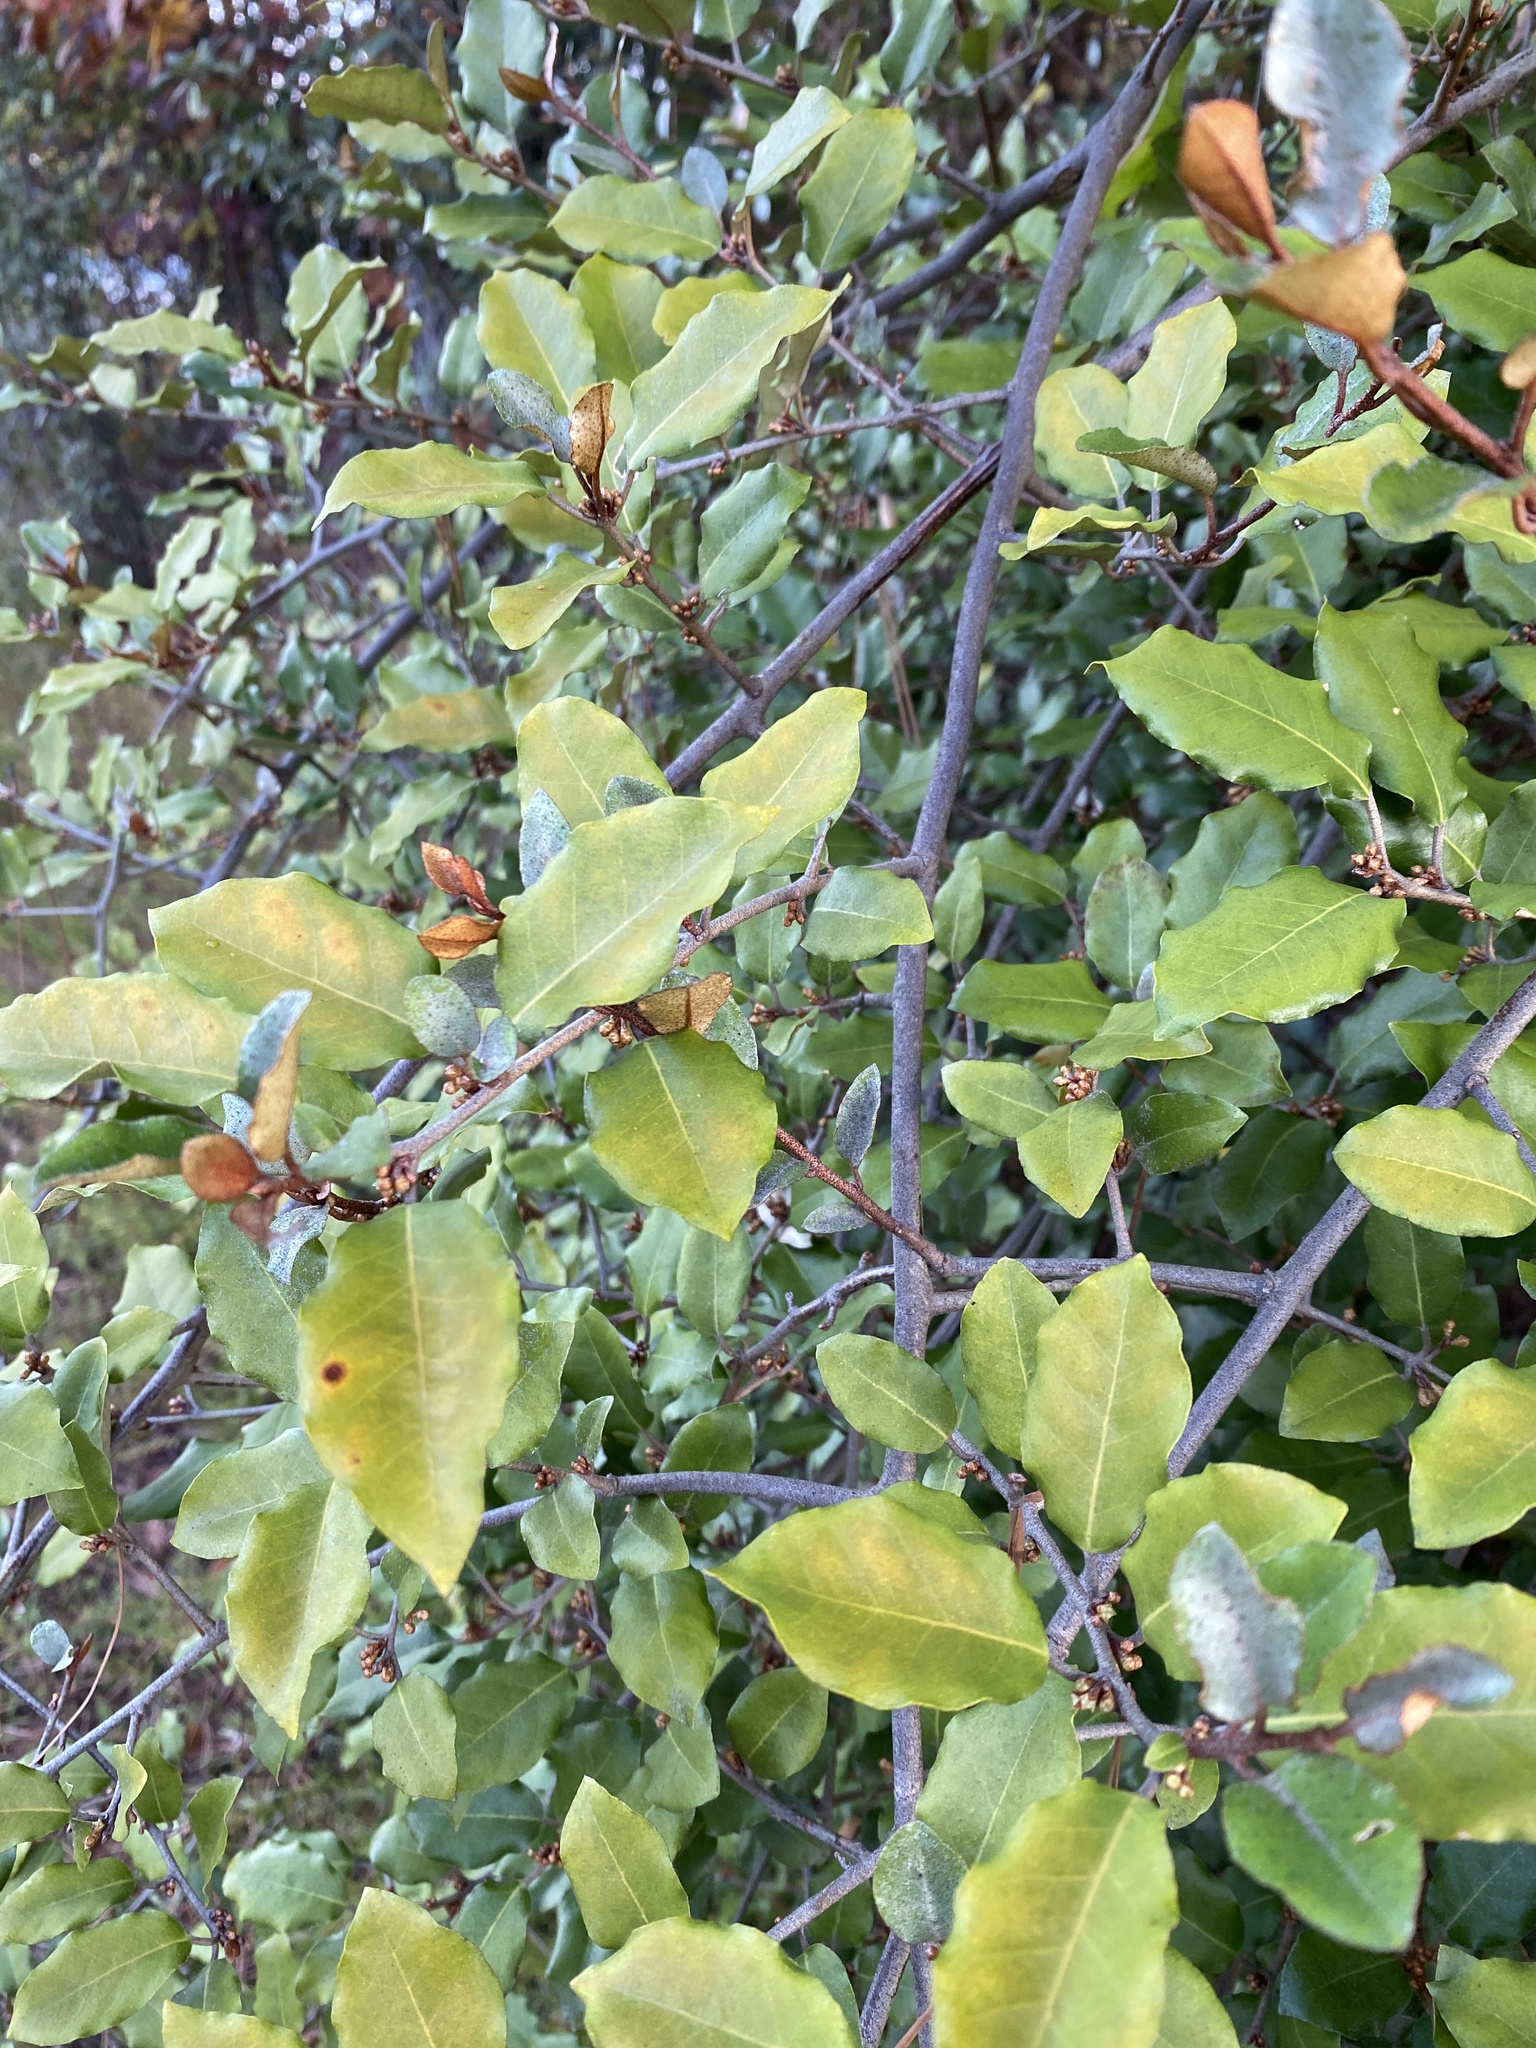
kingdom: Plantae
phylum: Tracheophyta
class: Magnoliopsida
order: Rosales
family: Elaeagnaceae
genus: Elaeagnus
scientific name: Elaeagnus pungens
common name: Spiny oleaster
